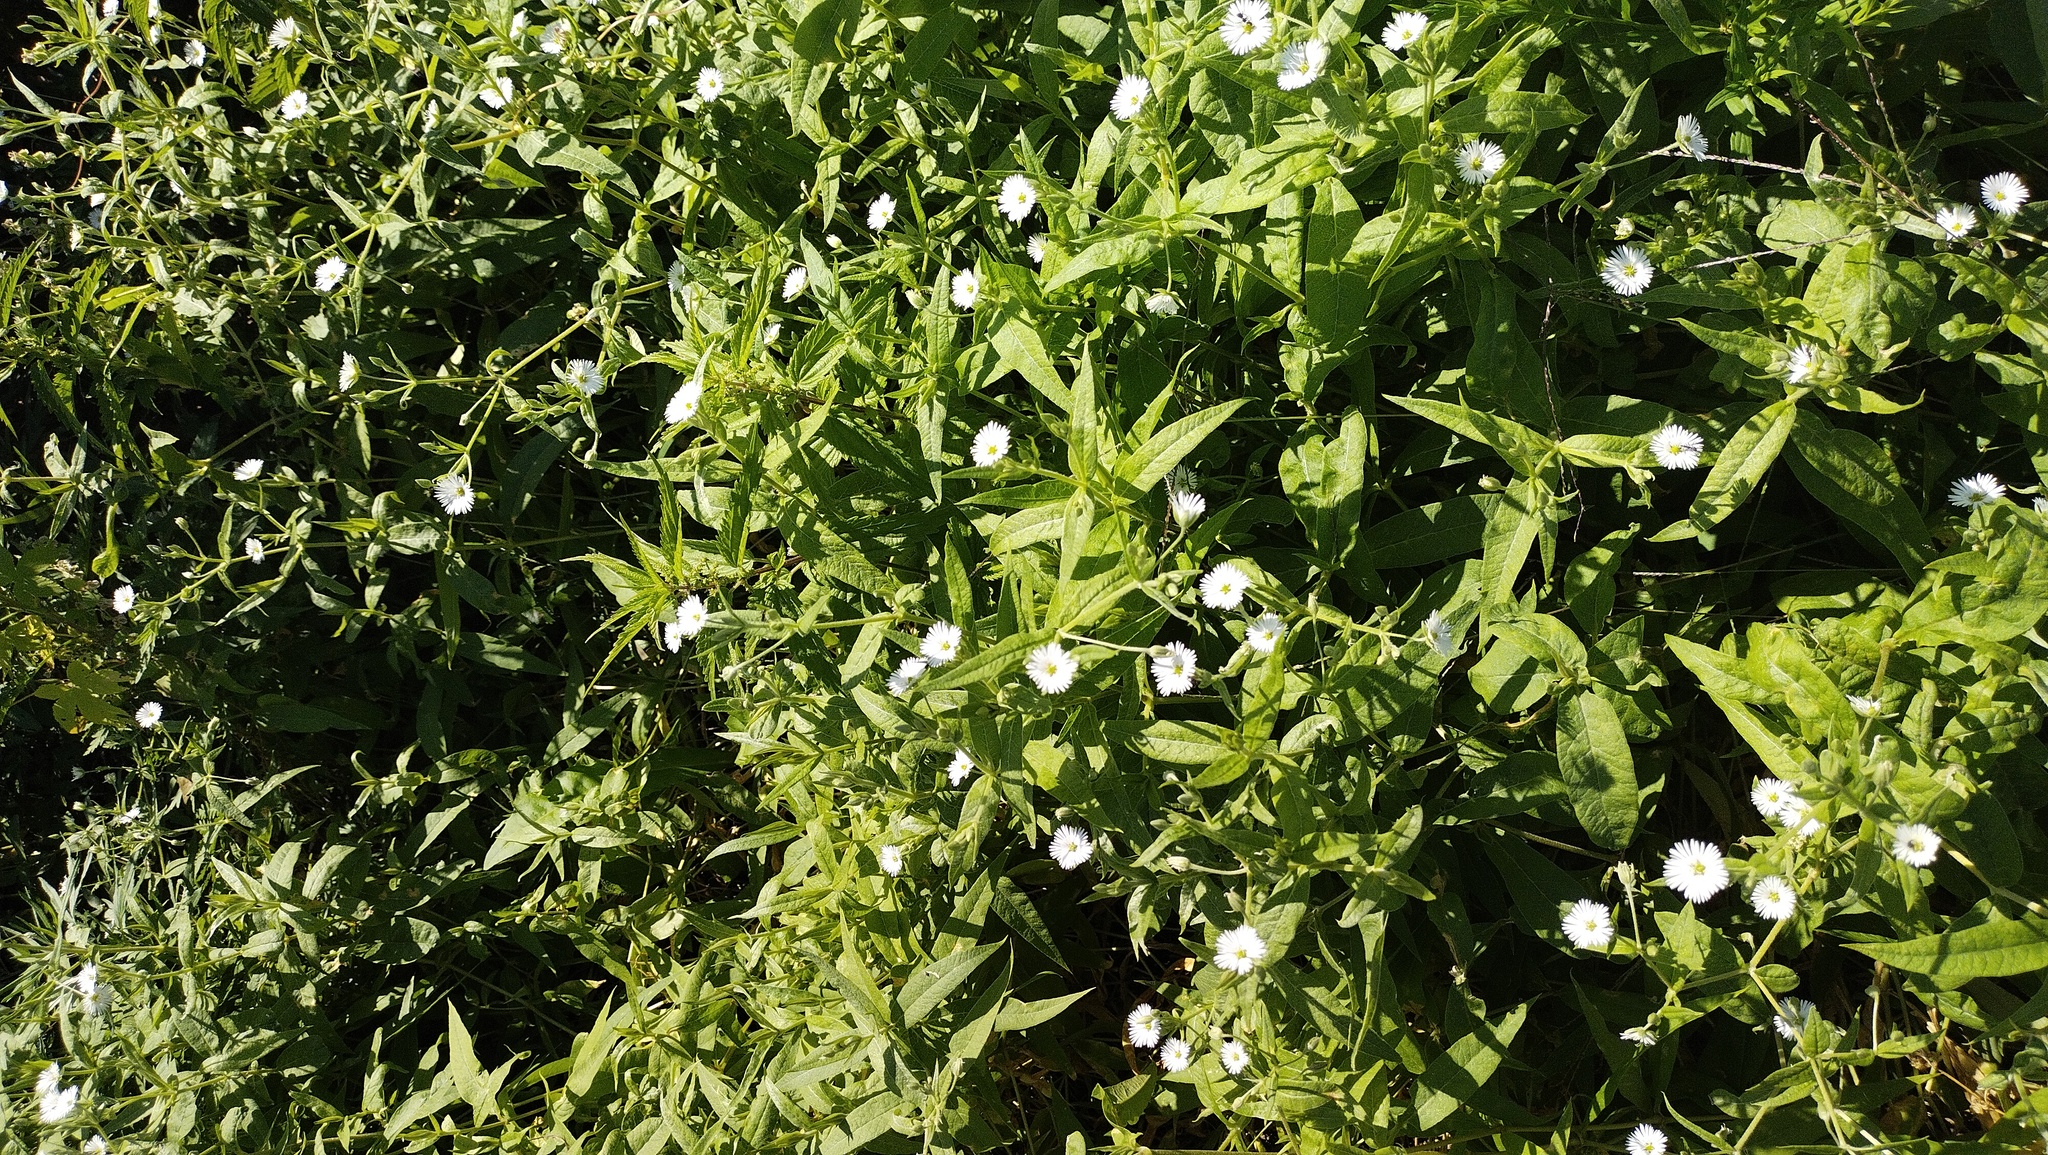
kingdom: Plantae
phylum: Tracheophyta
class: Magnoliopsida
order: Caryophyllales
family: Caryophyllaceae
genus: Stellaria
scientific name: Stellaria radians
